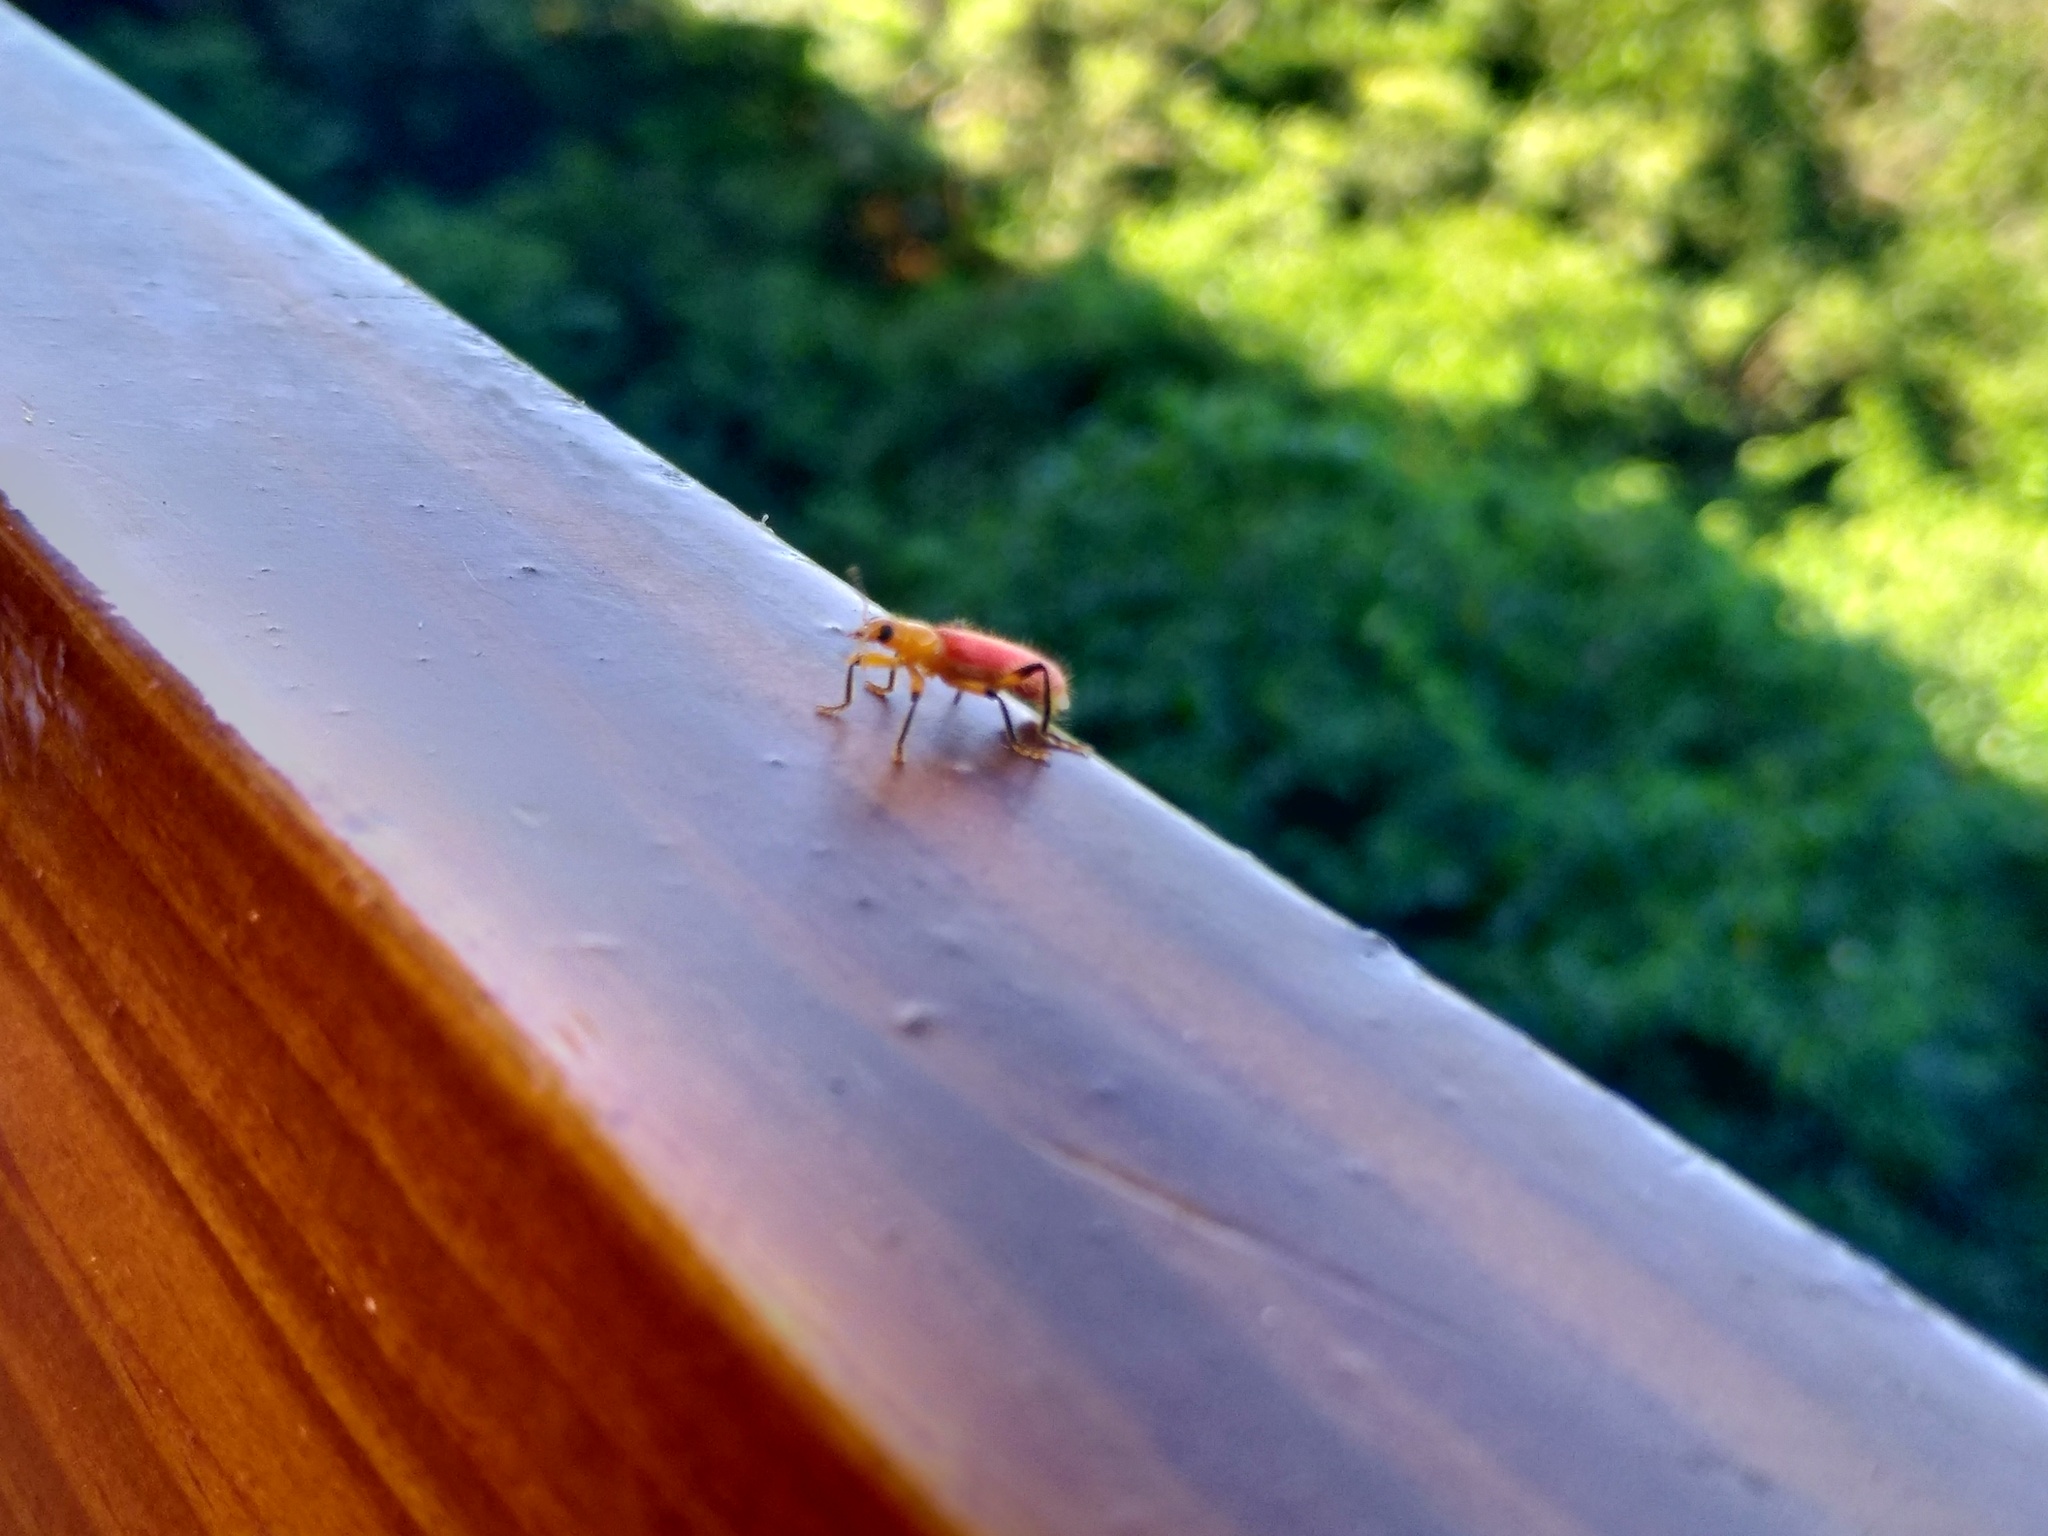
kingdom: Animalia
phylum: Arthropoda
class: Insecta
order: Coleoptera
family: Cleridae
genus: Aphelochroa
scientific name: Aphelochroa
